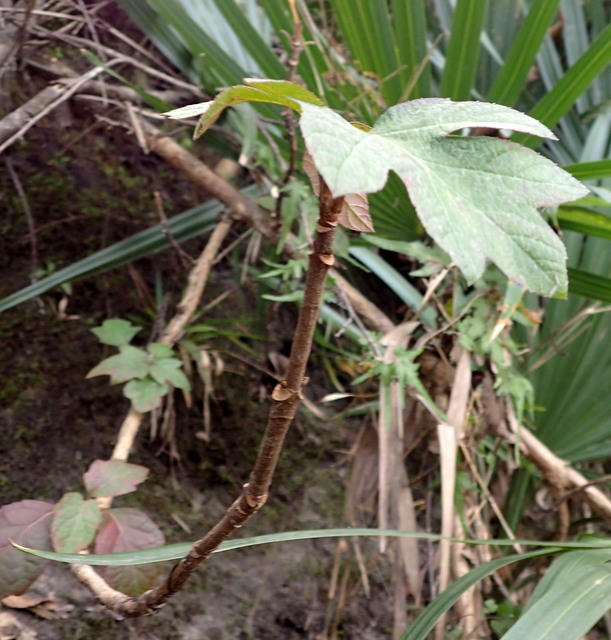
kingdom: Plantae
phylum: Tracheophyta
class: Magnoliopsida
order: Cornales
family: Hydrangeaceae
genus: Hydrangea
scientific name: Hydrangea quercifolia
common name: Oak-leaf hydrangea
